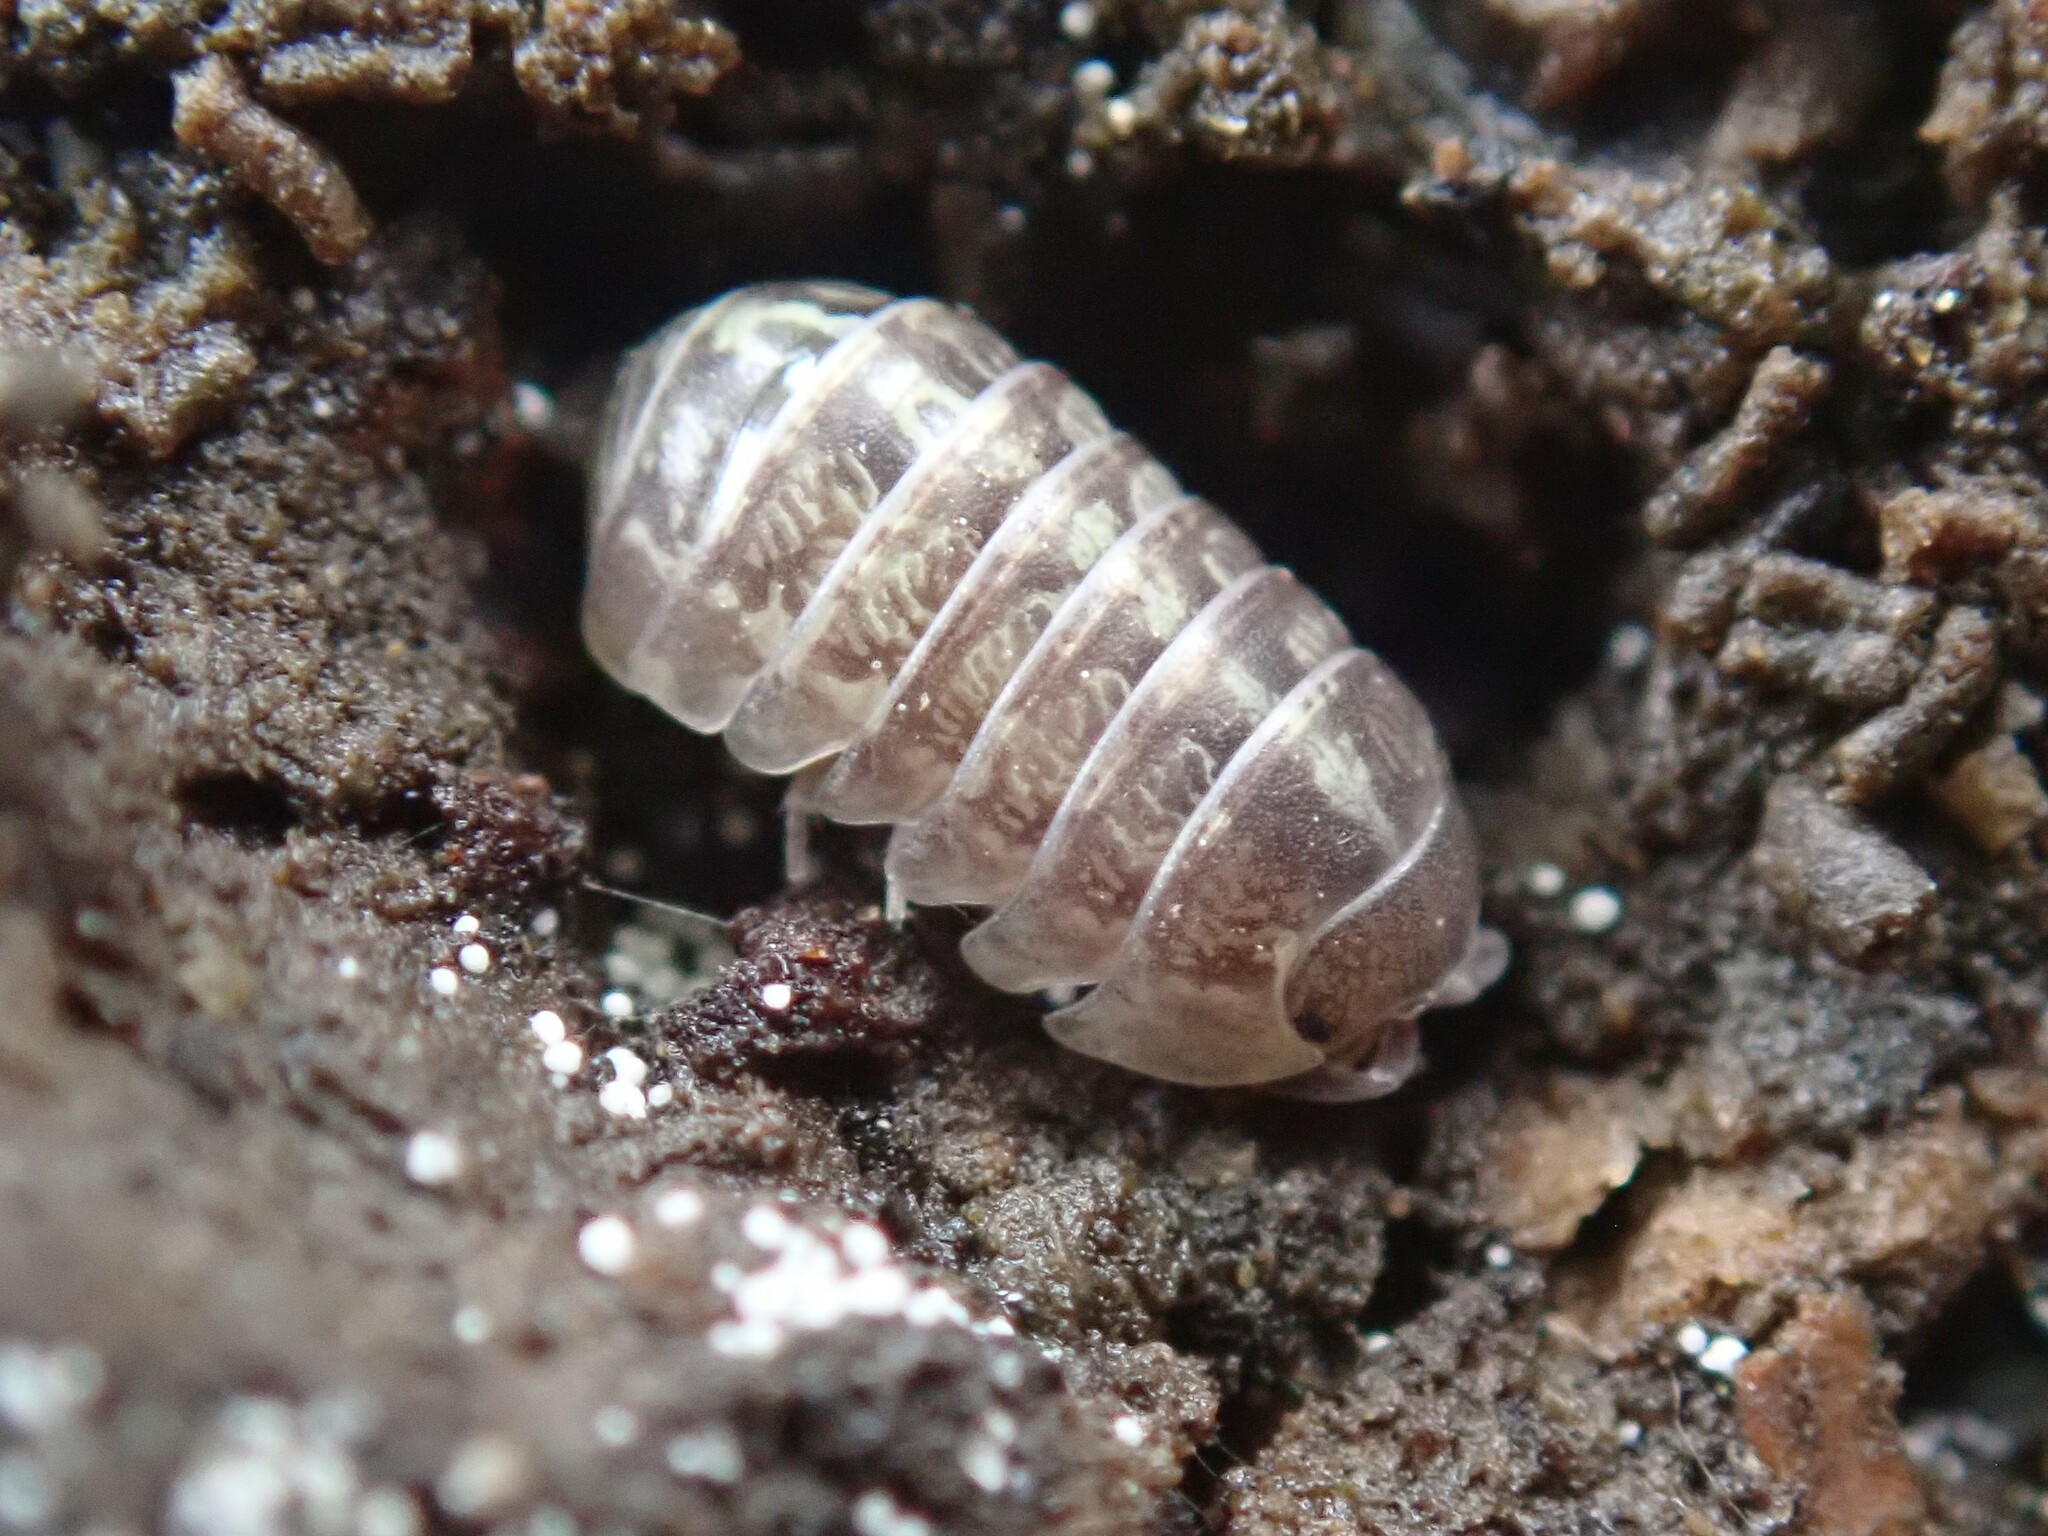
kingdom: Animalia
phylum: Arthropoda
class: Malacostraca
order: Isopoda
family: Armadillidiidae
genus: Armadillidium
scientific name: Armadillidium vulgare
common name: Common pill woodlouse
